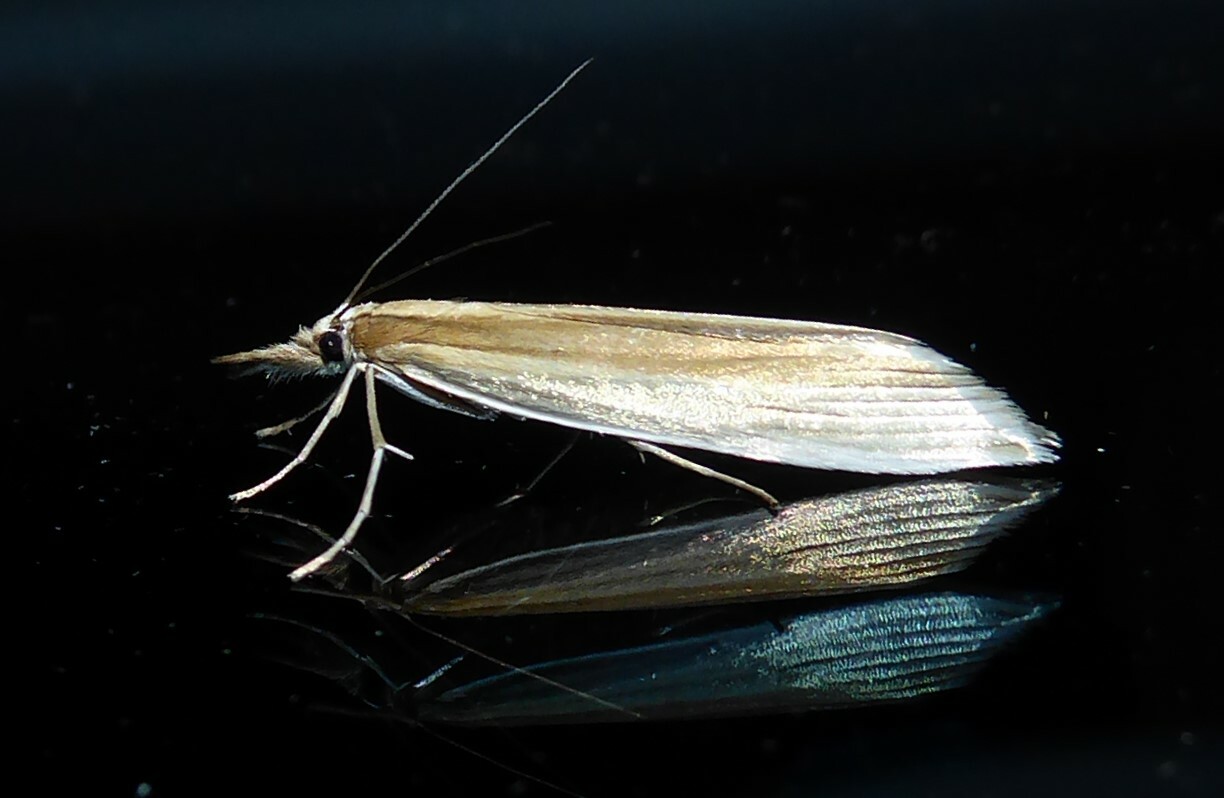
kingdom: Animalia
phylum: Arthropoda
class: Insecta
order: Lepidoptera
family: Crambidae
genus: Orocrambus
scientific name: Orocrambus angustipennis
